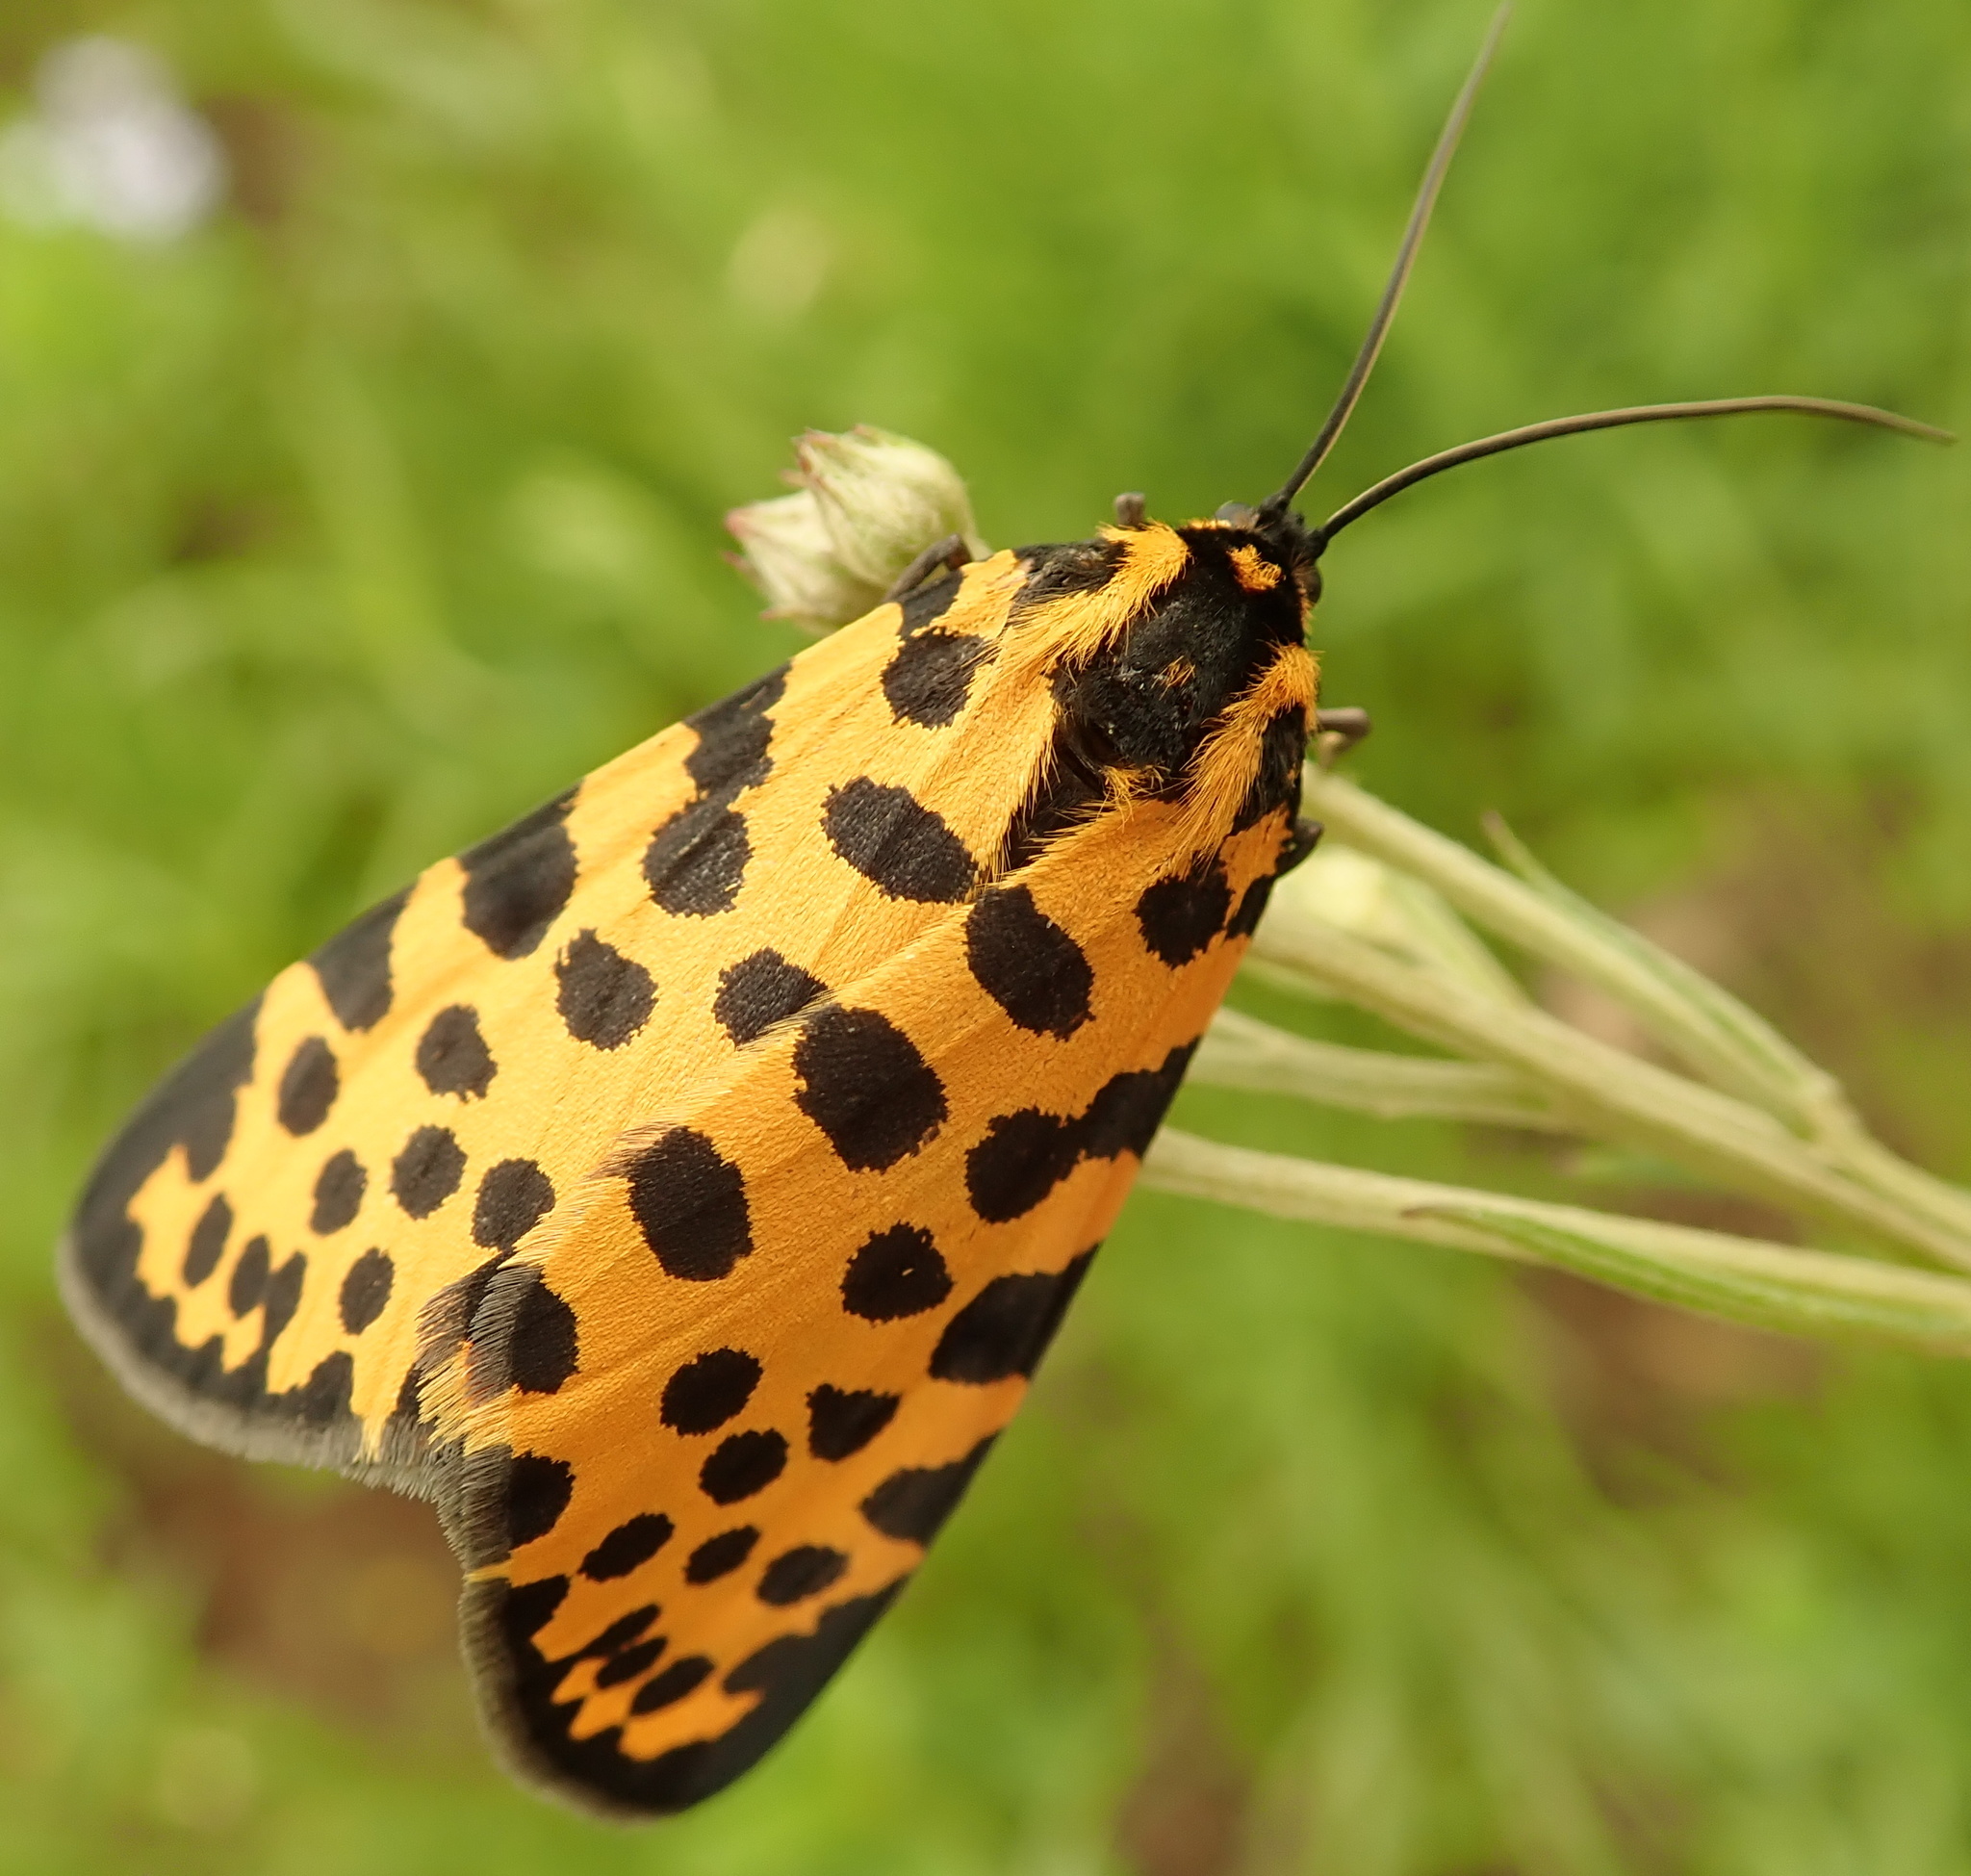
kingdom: Animalia
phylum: Arthropoda
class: Insecta
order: Lepidoptera
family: Geometridae
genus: Zerenopsis
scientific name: Zerenopsis lepida
